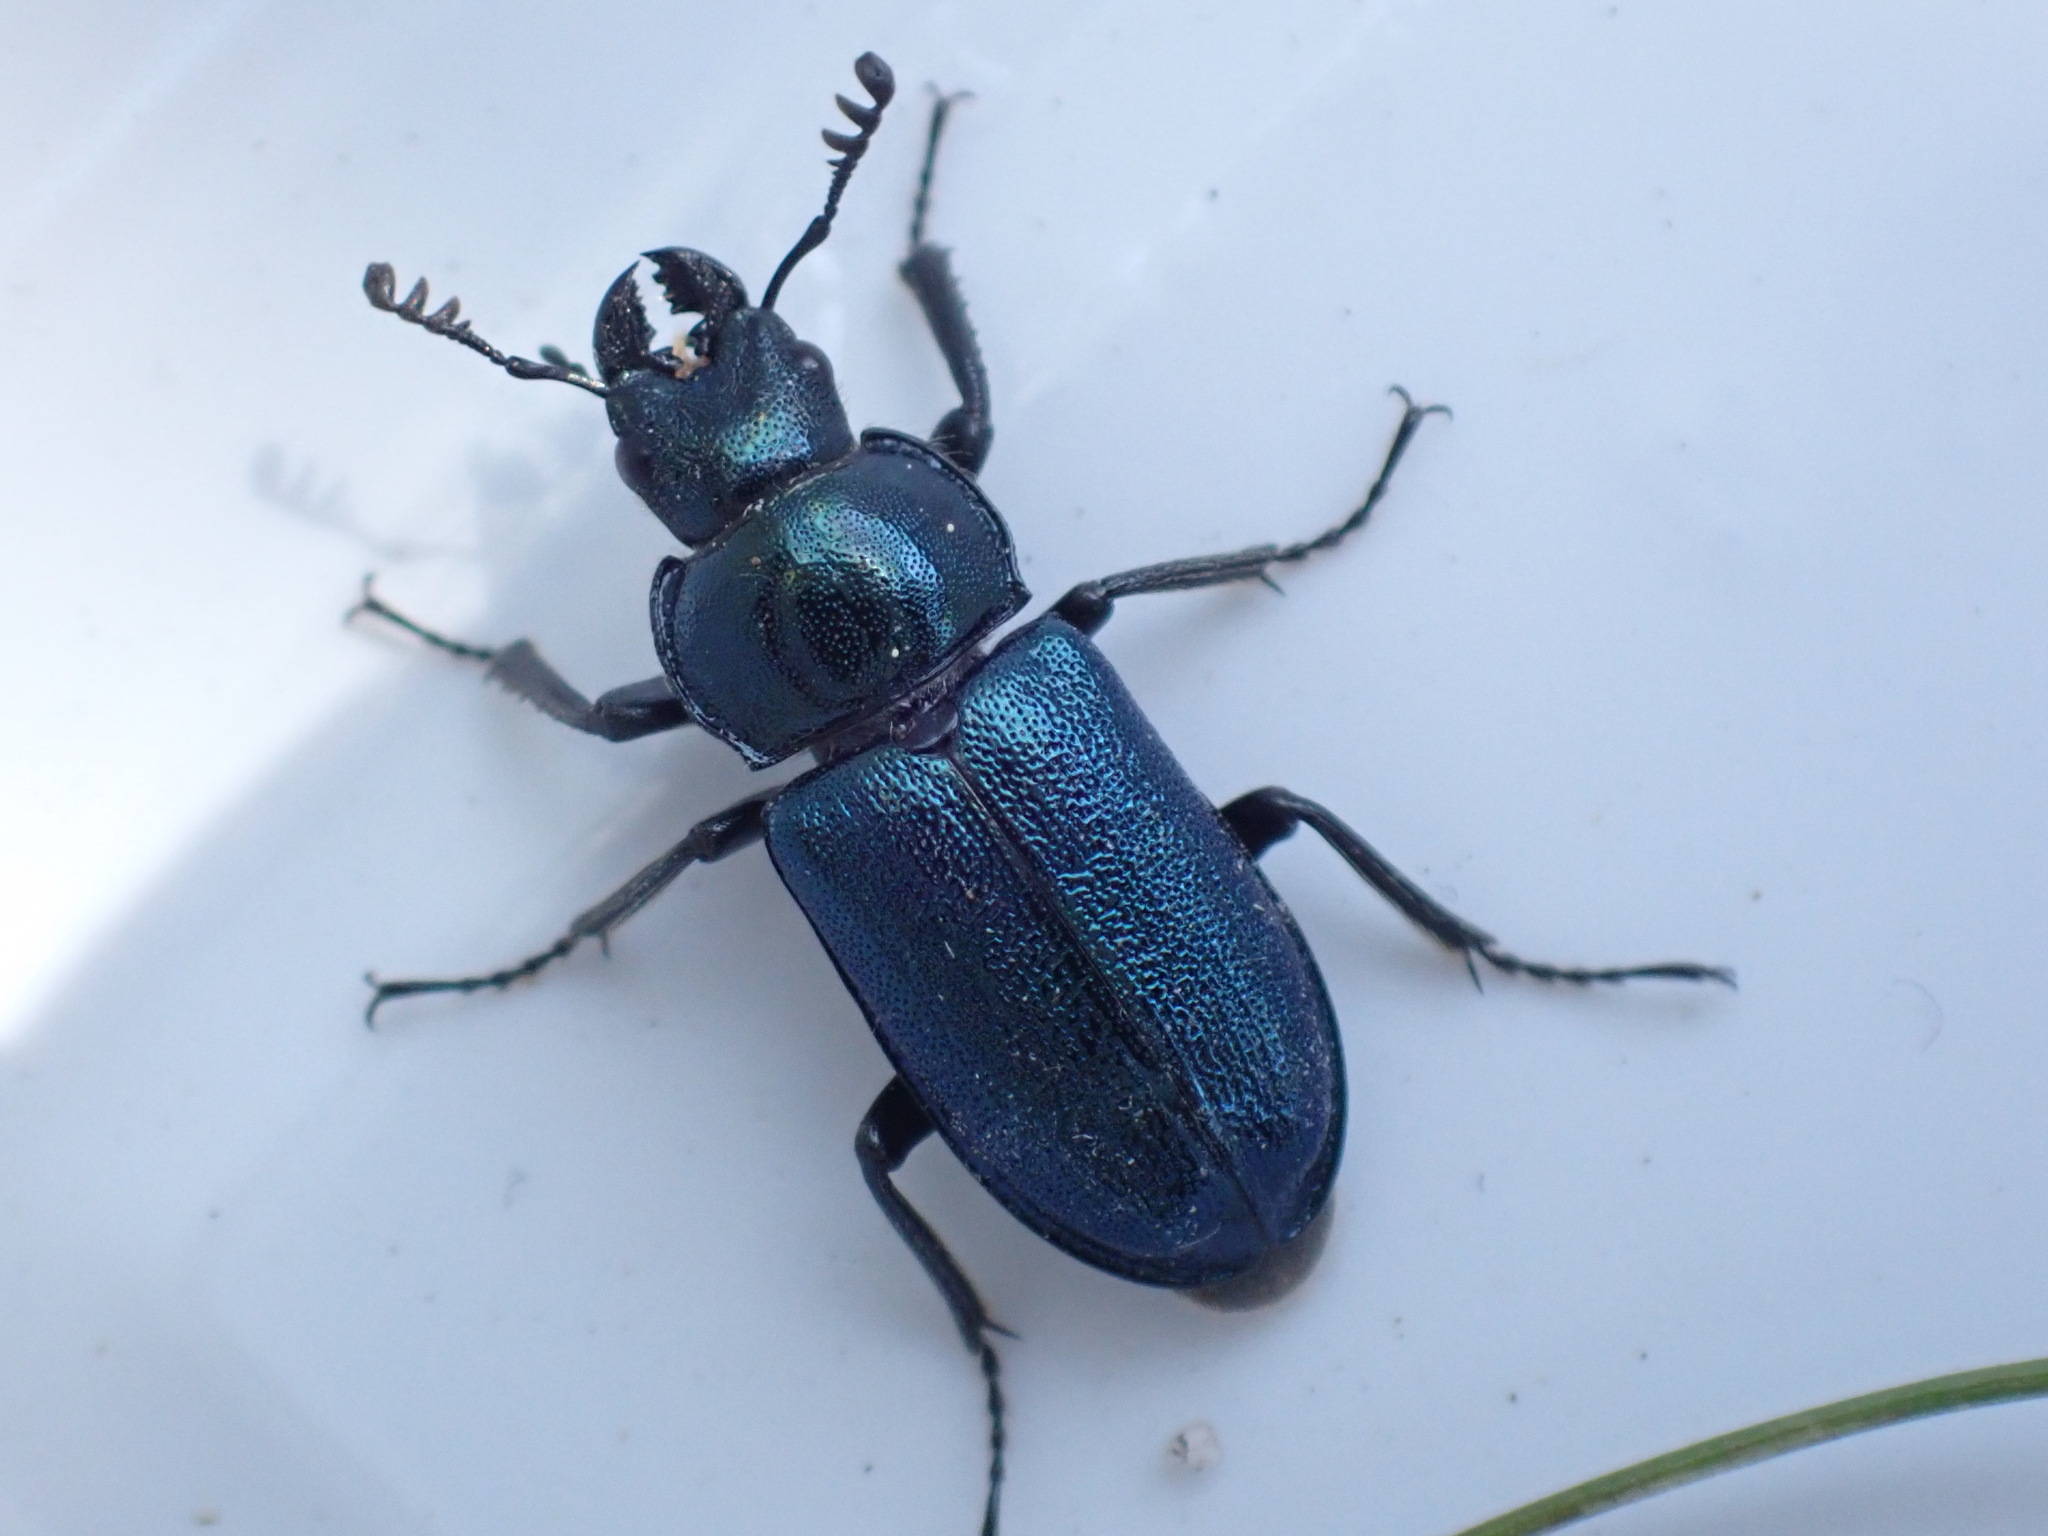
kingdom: Animalia
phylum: Arthropoda
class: Insecta
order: Coleoptera
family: Lucanidae
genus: Platycerus
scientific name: Platycerus caraboides
